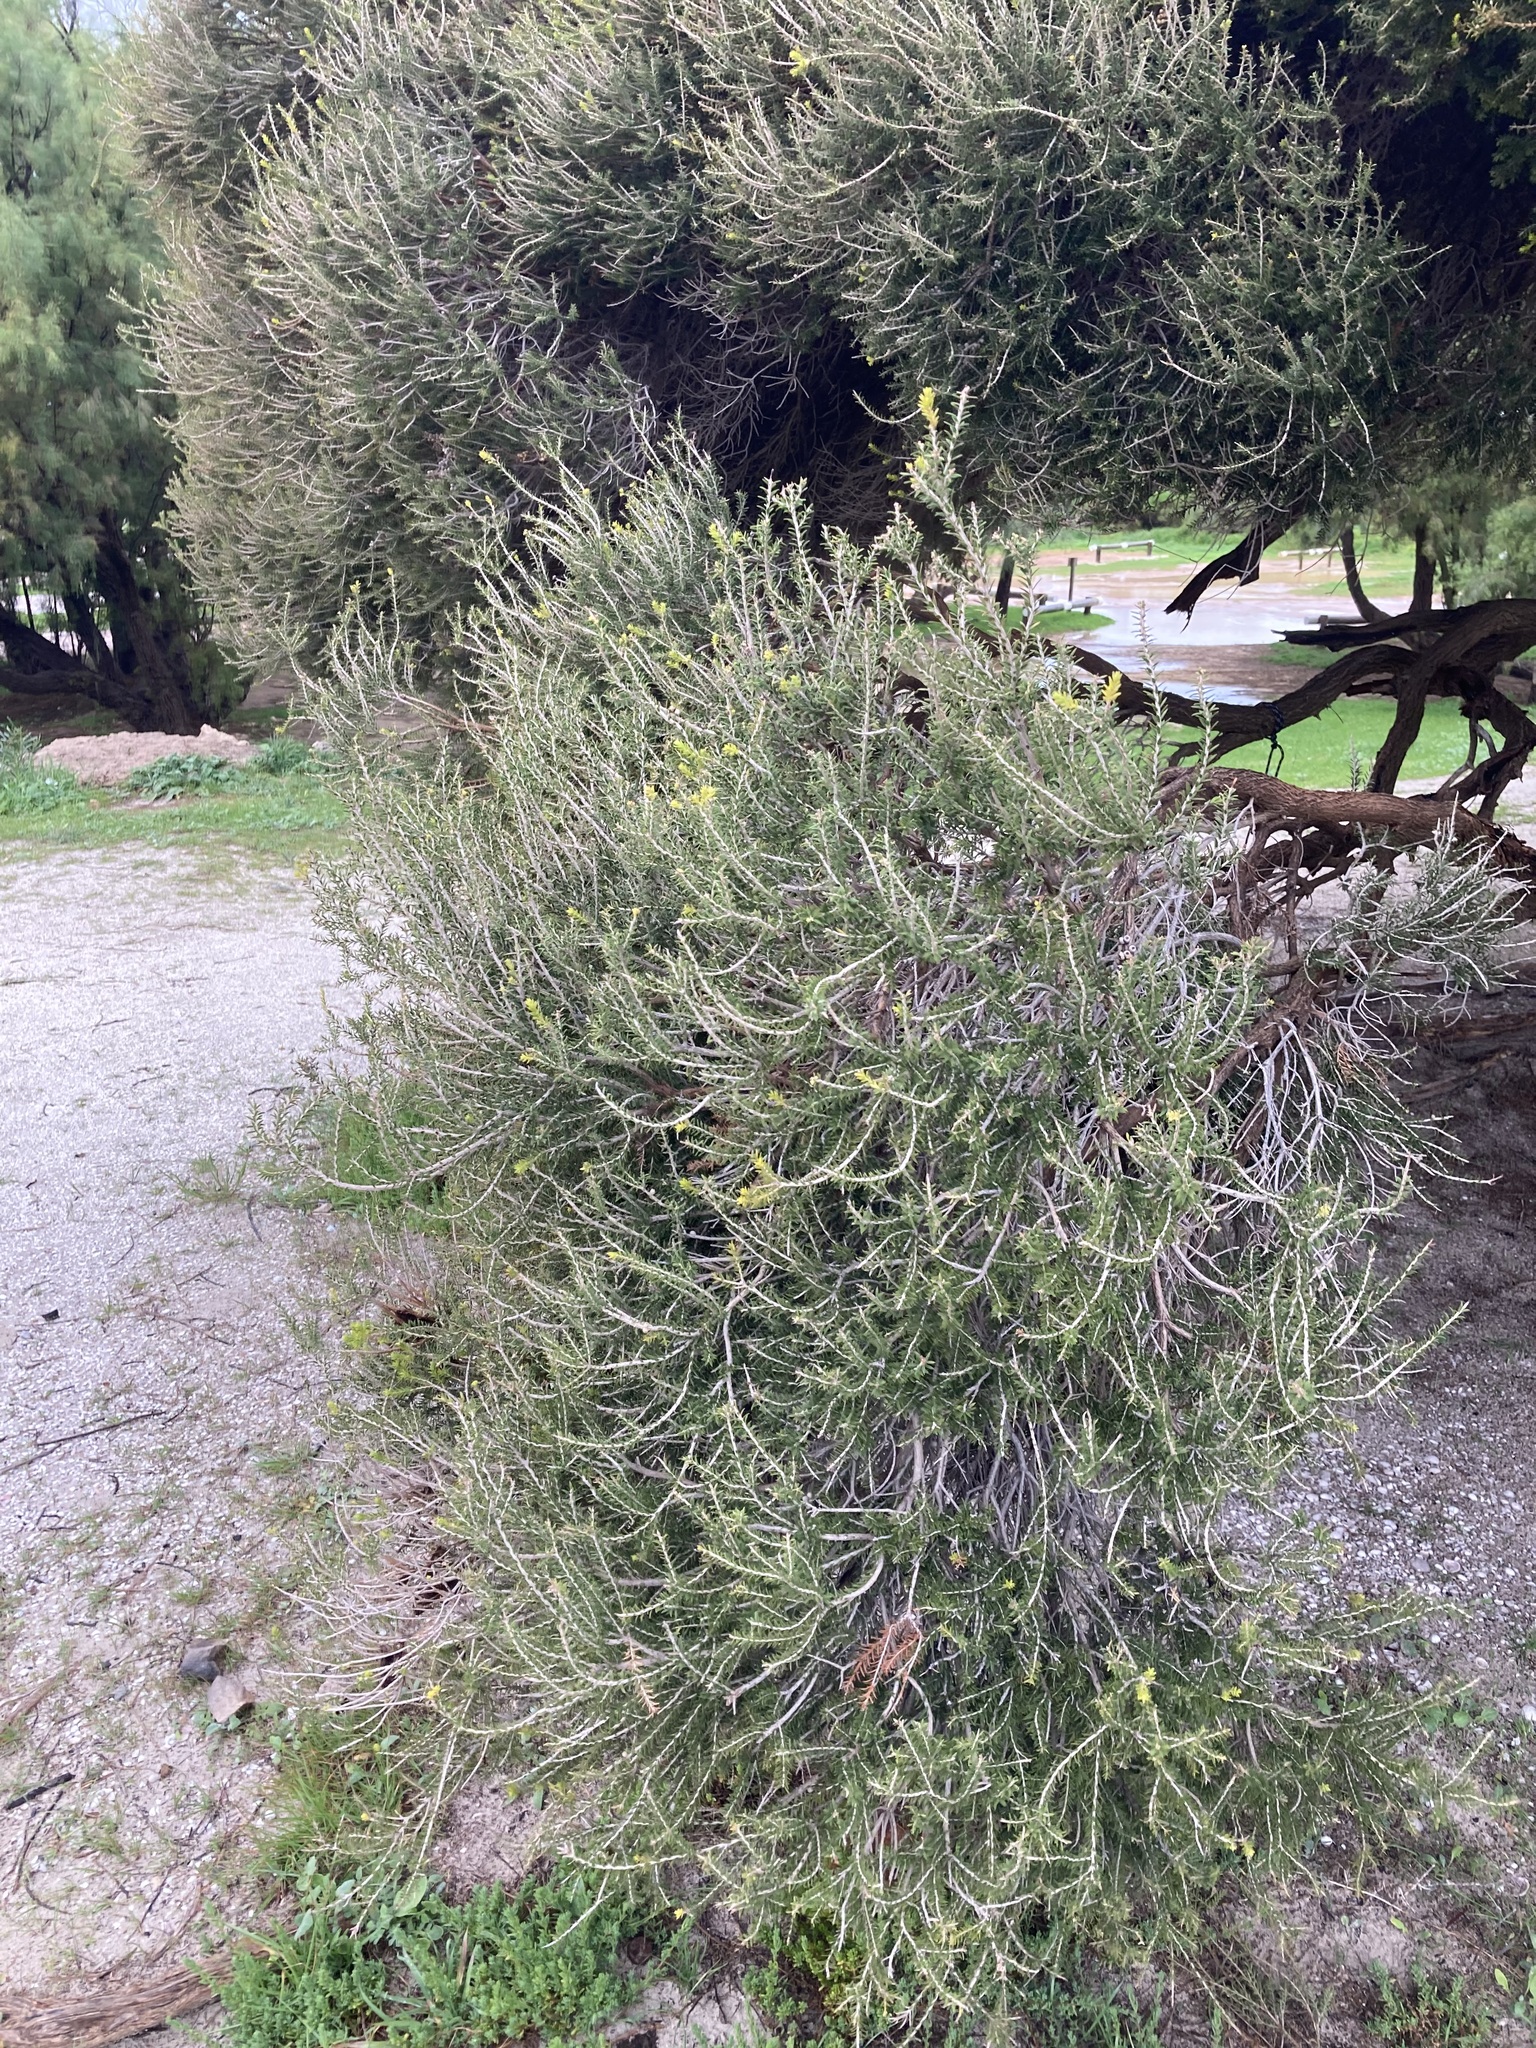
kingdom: Plantae
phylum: Tracheophyta
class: Magnoliopsida
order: Myrtales
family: Myrtaceae
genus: Melaleuca
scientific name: Melaleuca lanceolata
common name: Rottnest island teatree
